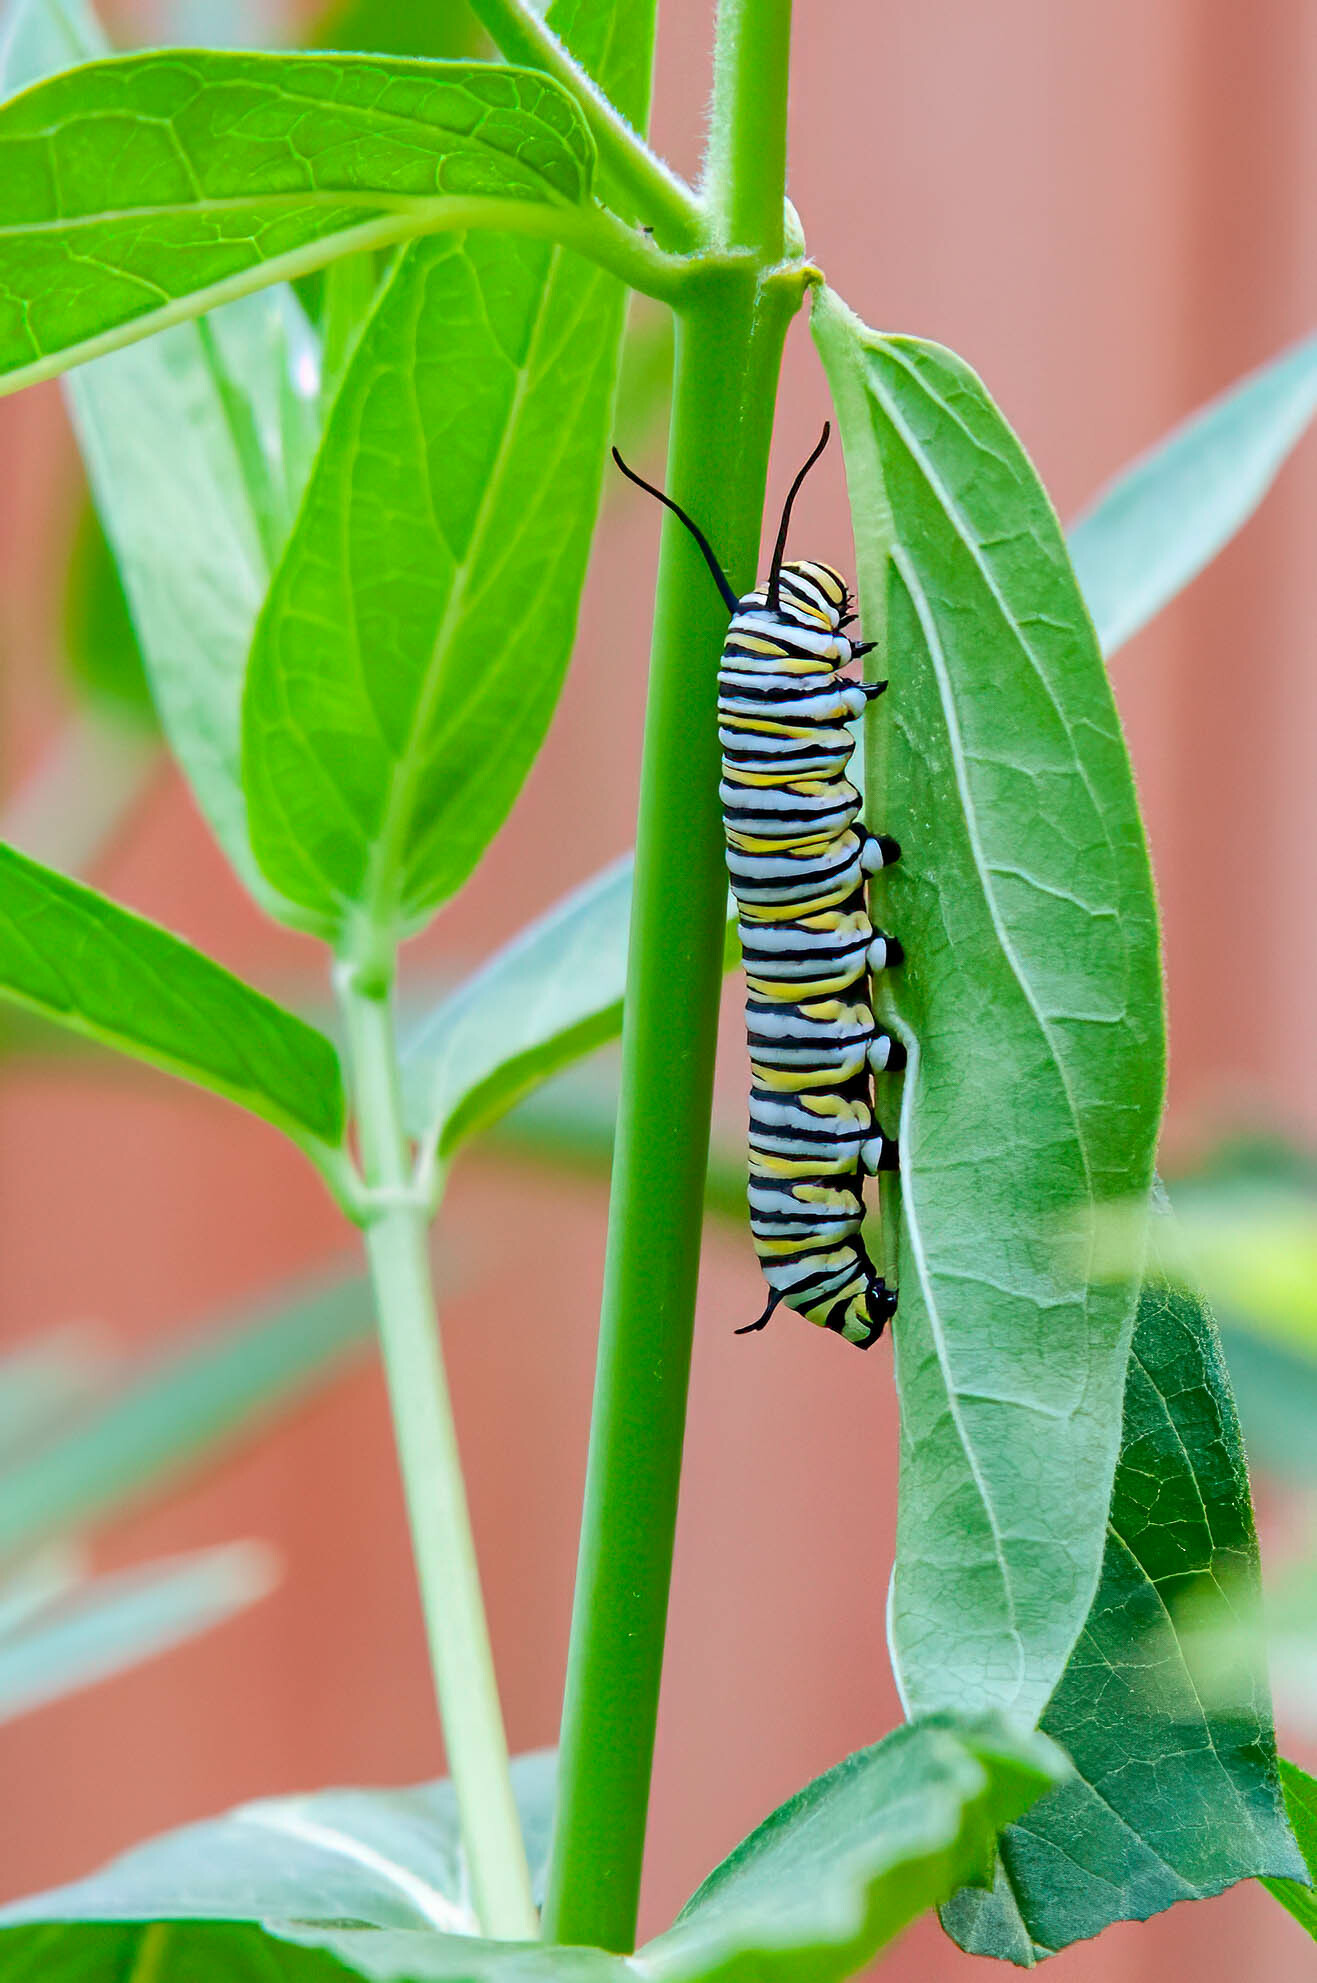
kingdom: Animalia
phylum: Arthropoda
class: Insecta
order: Lepidoptera
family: Nymphalidae
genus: Danaus
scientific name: Danaus plexippus
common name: Monarch
